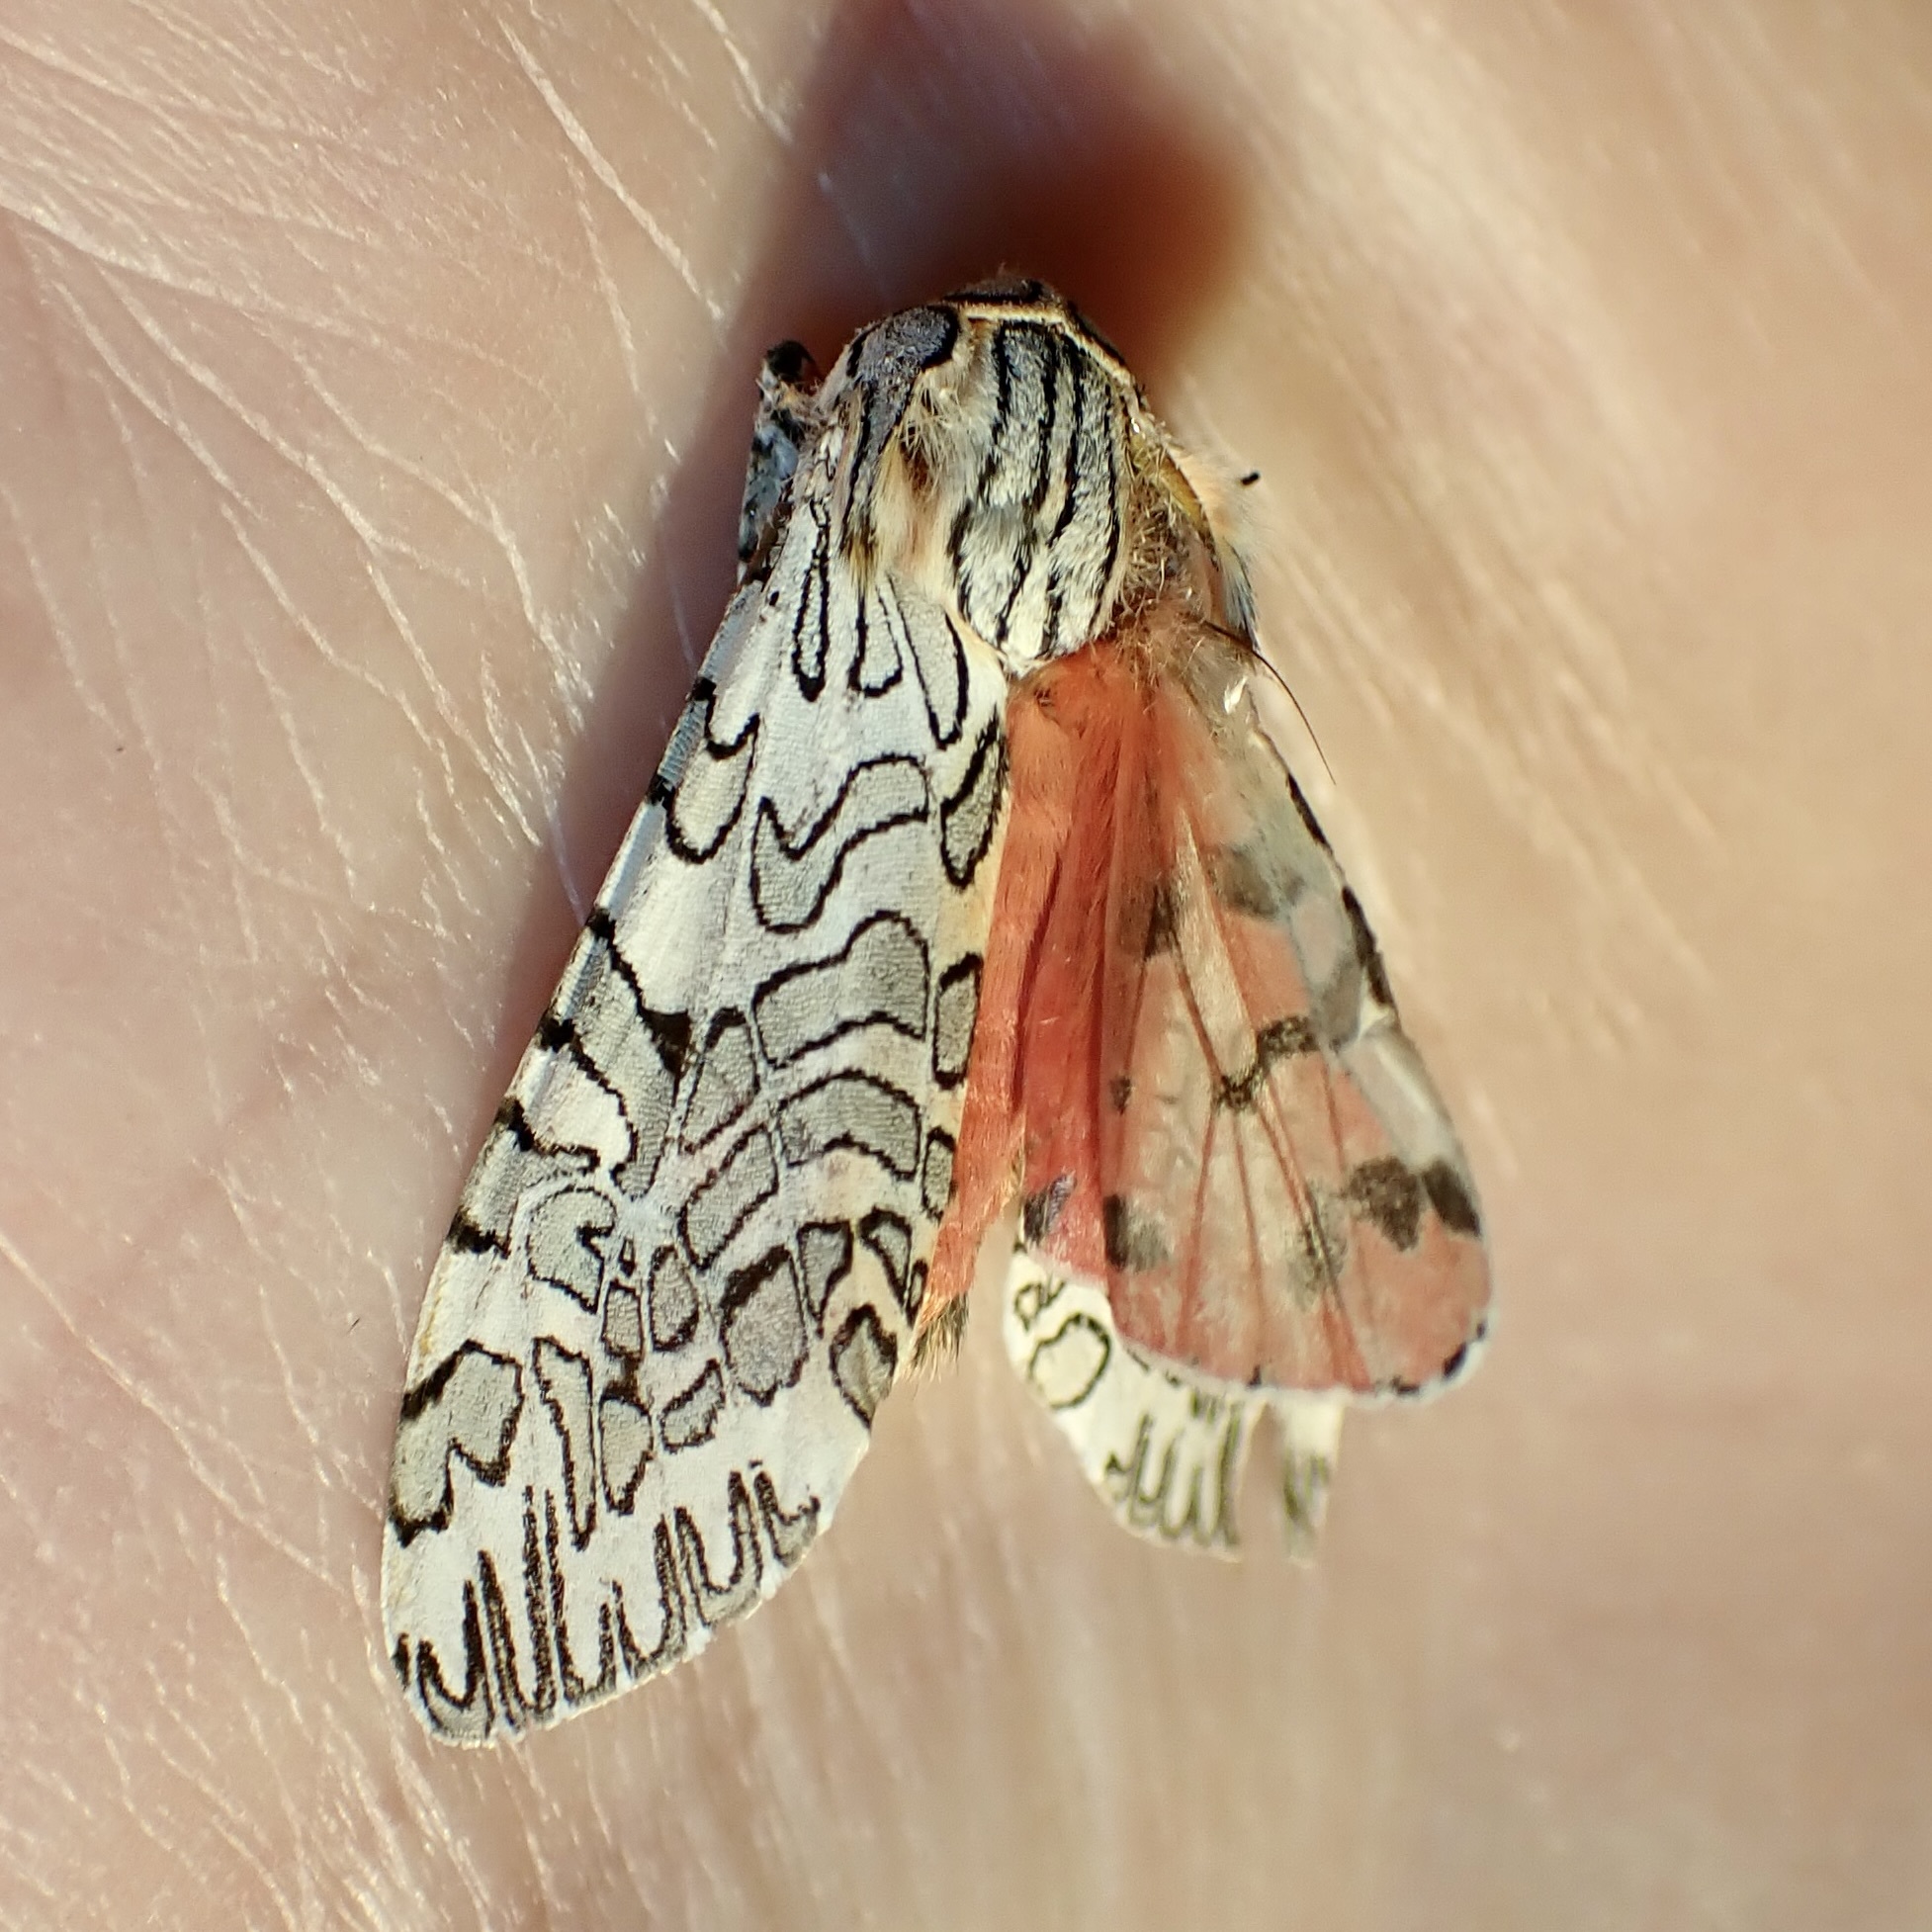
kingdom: Animalia
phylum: Arthropoda
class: Insecta
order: Lepidoptera
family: Erebidae
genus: Arachnis
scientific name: Arachnis citra
